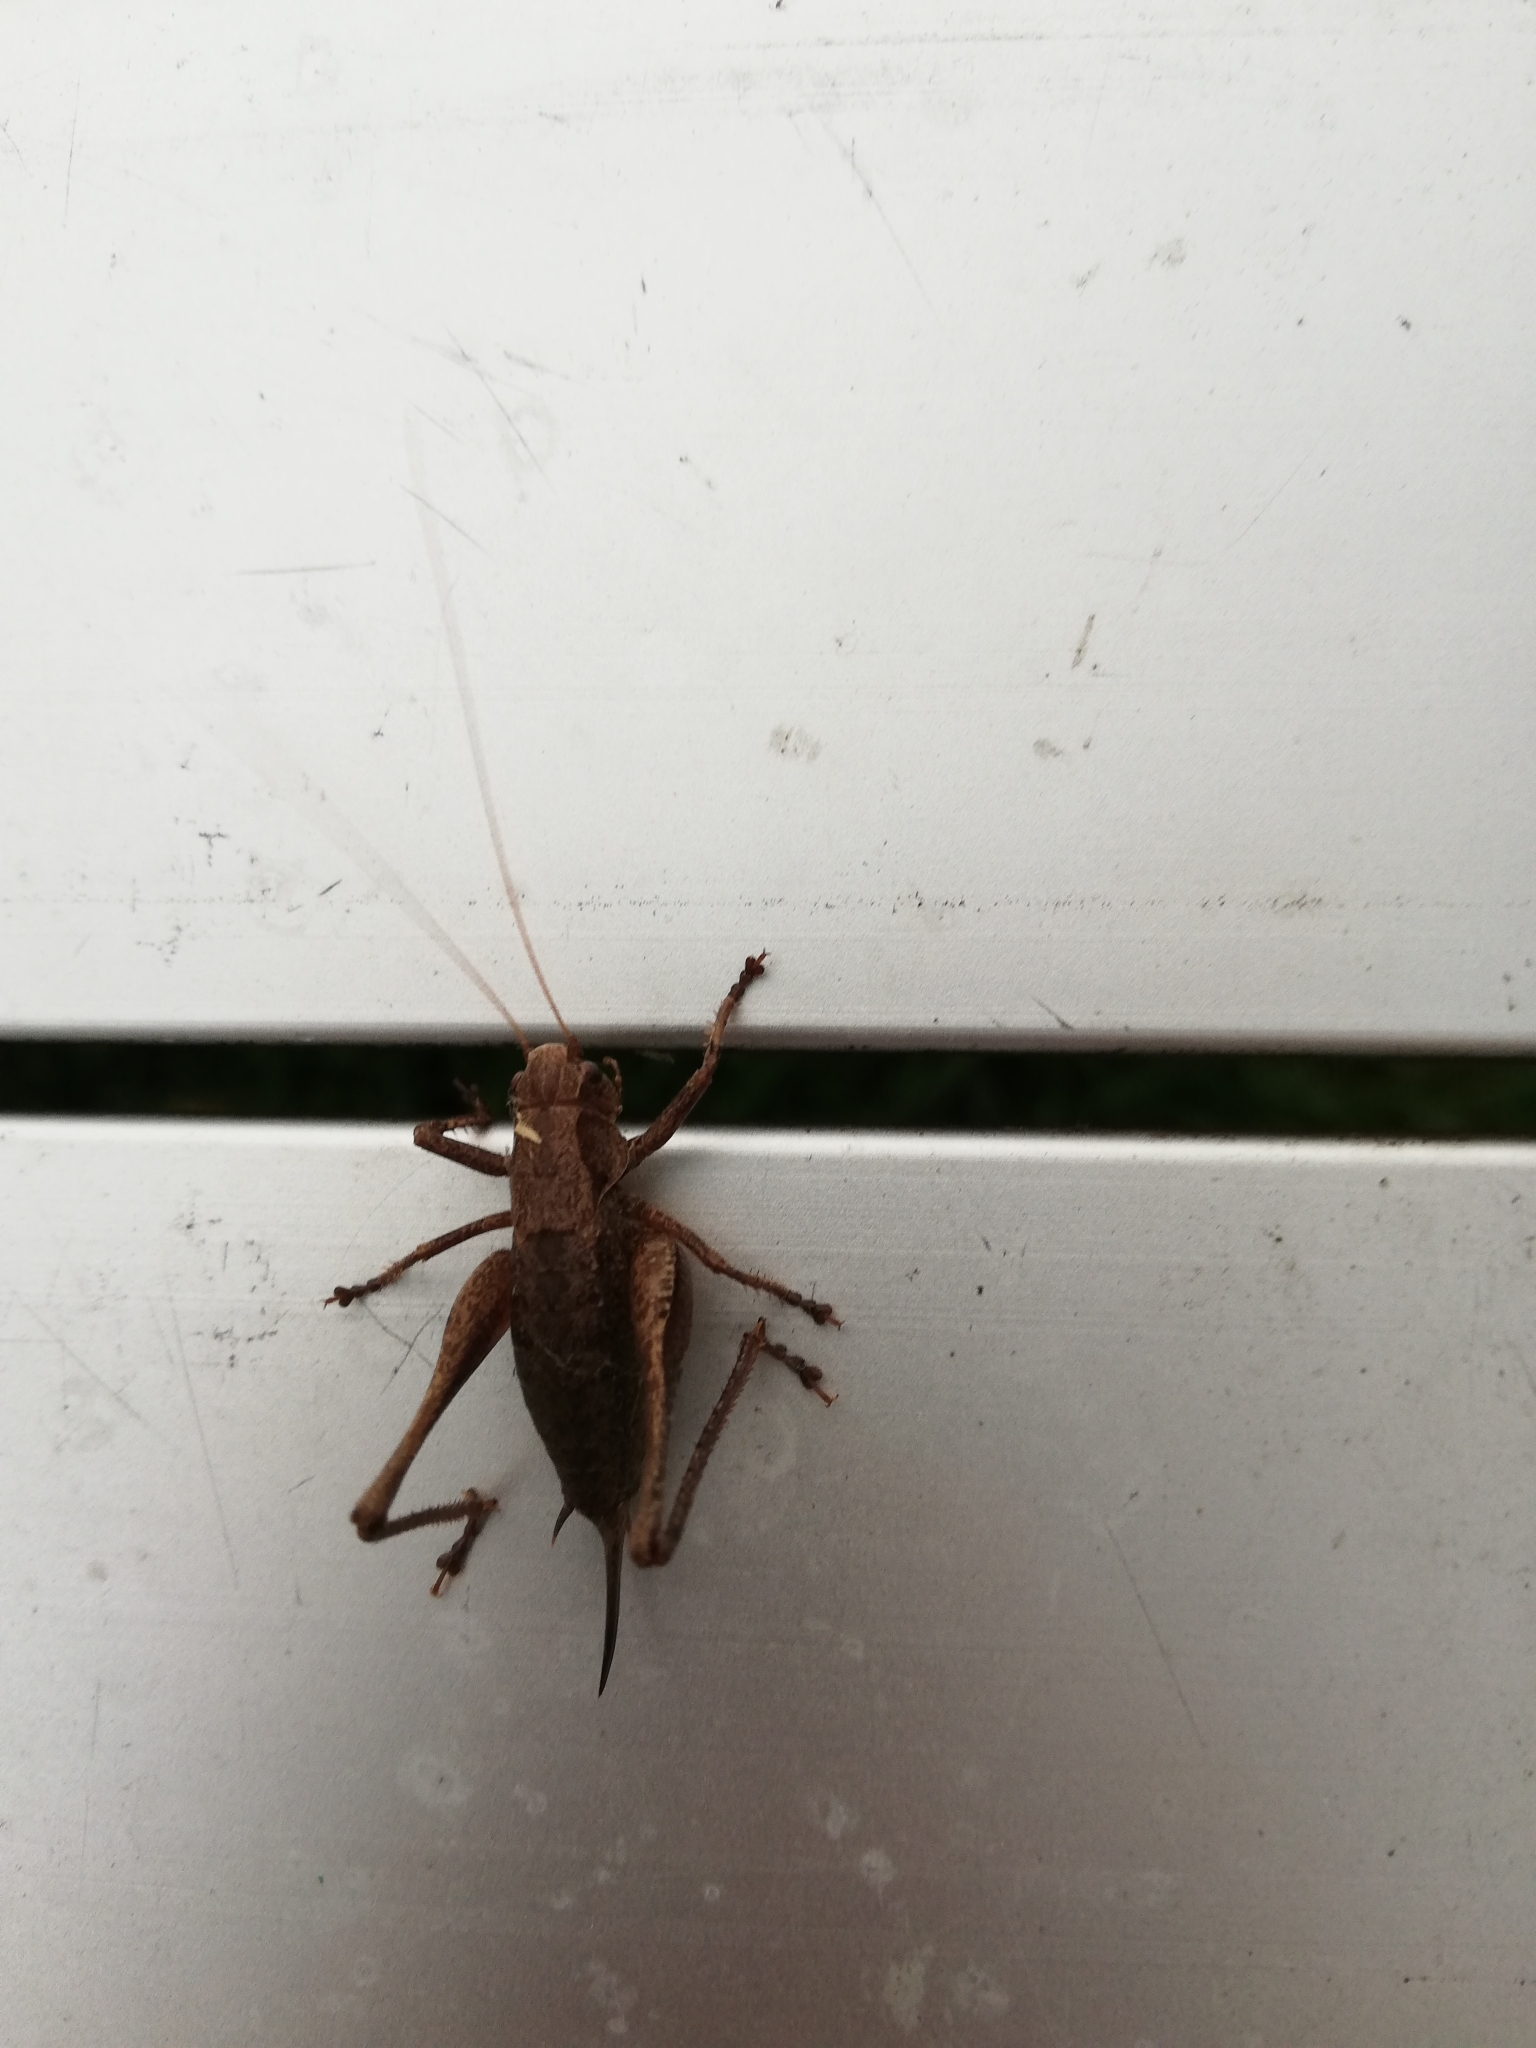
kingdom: Animalia
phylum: Arthropoda
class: Insecta
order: Orthoptera
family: Tettigoniidae
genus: Pholidoptera
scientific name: Pholidoptera griseoaptera
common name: Dark bush-cricket
